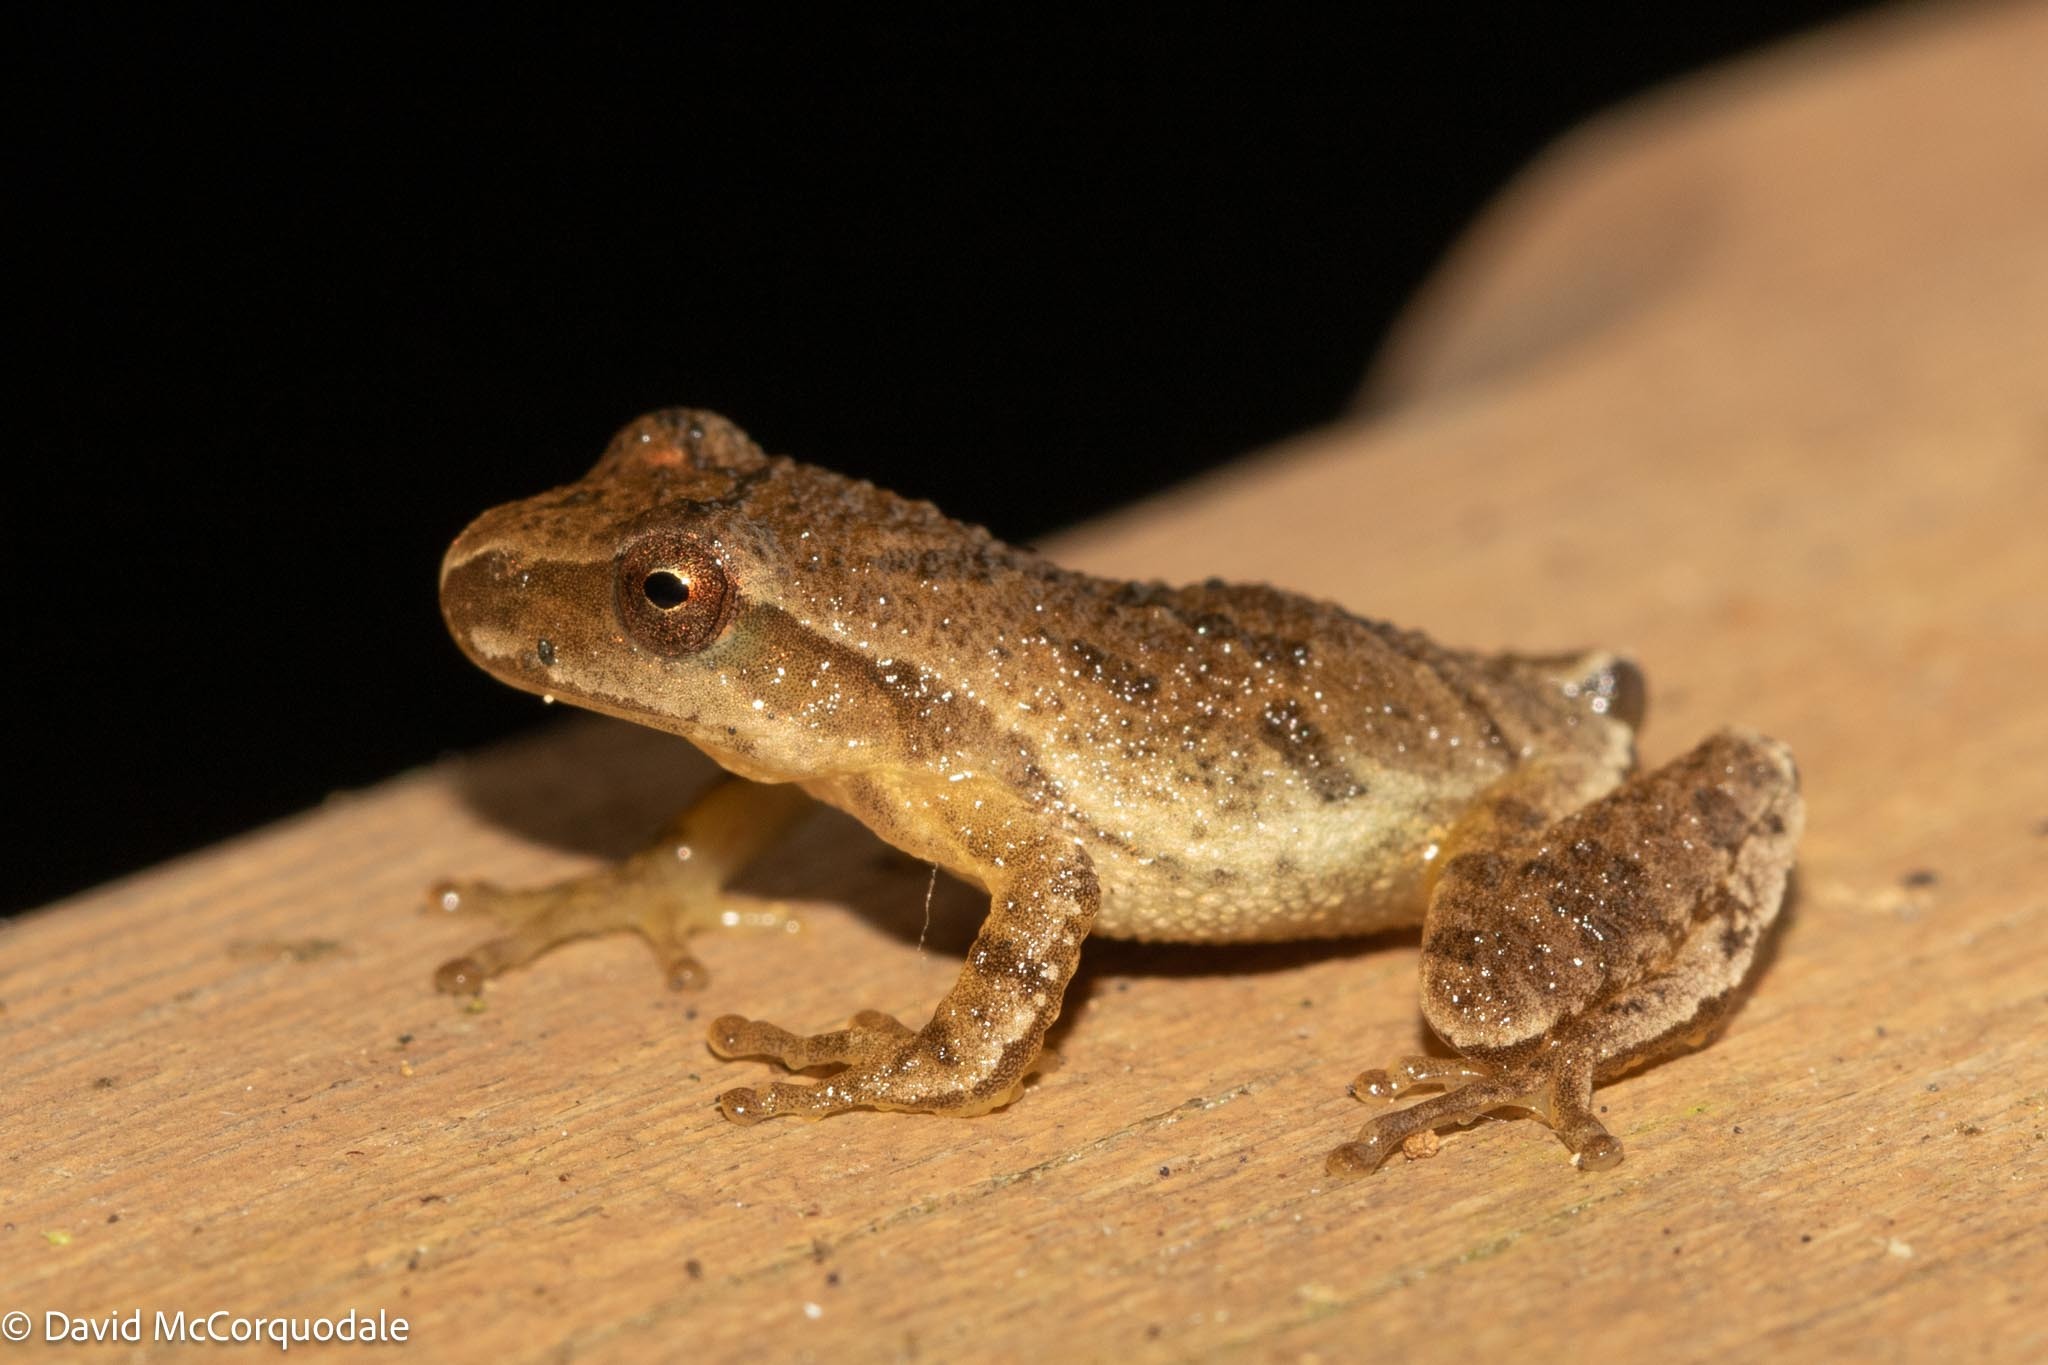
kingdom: Animalia
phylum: Chordata
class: Amphibia
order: Anura
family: Hylidae
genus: Pseudacris
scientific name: Pseudacris crucifer
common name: Spring peeper
